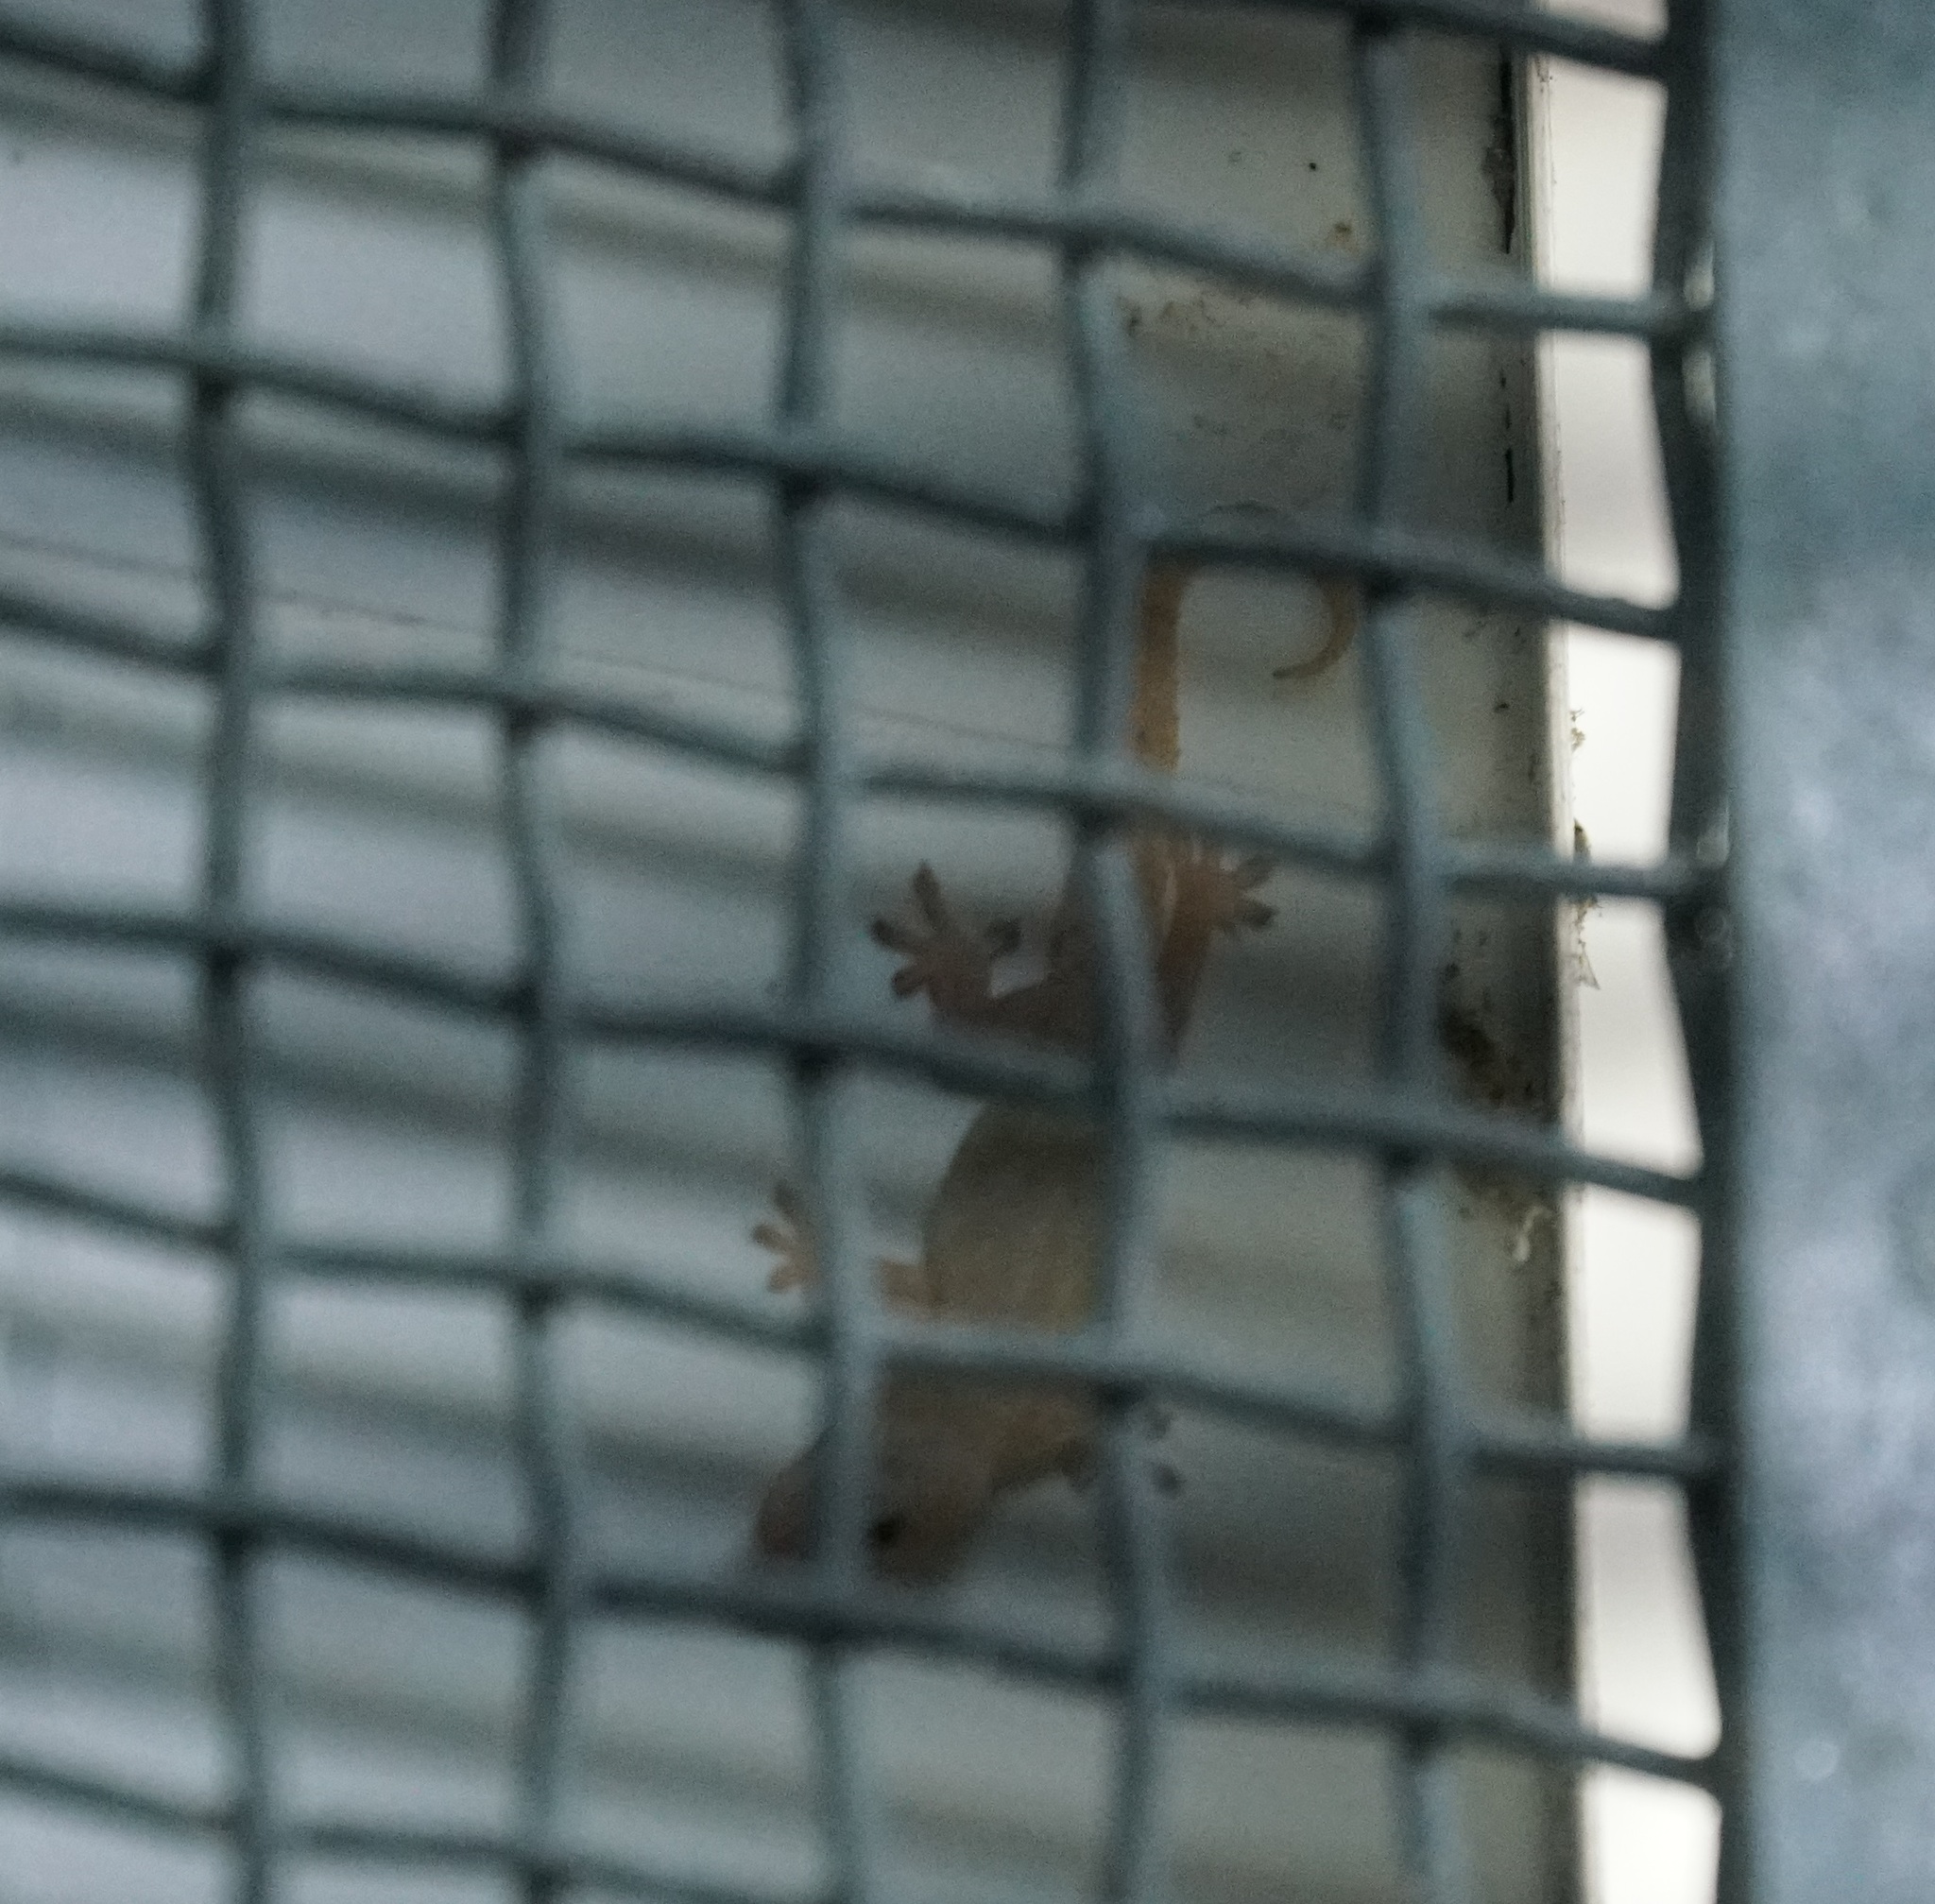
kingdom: Animalia
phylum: Chordata
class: Squamata
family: Gekkonidae
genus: Hemidactylus
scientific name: Hemidactylus frenatus
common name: Common house gecko
